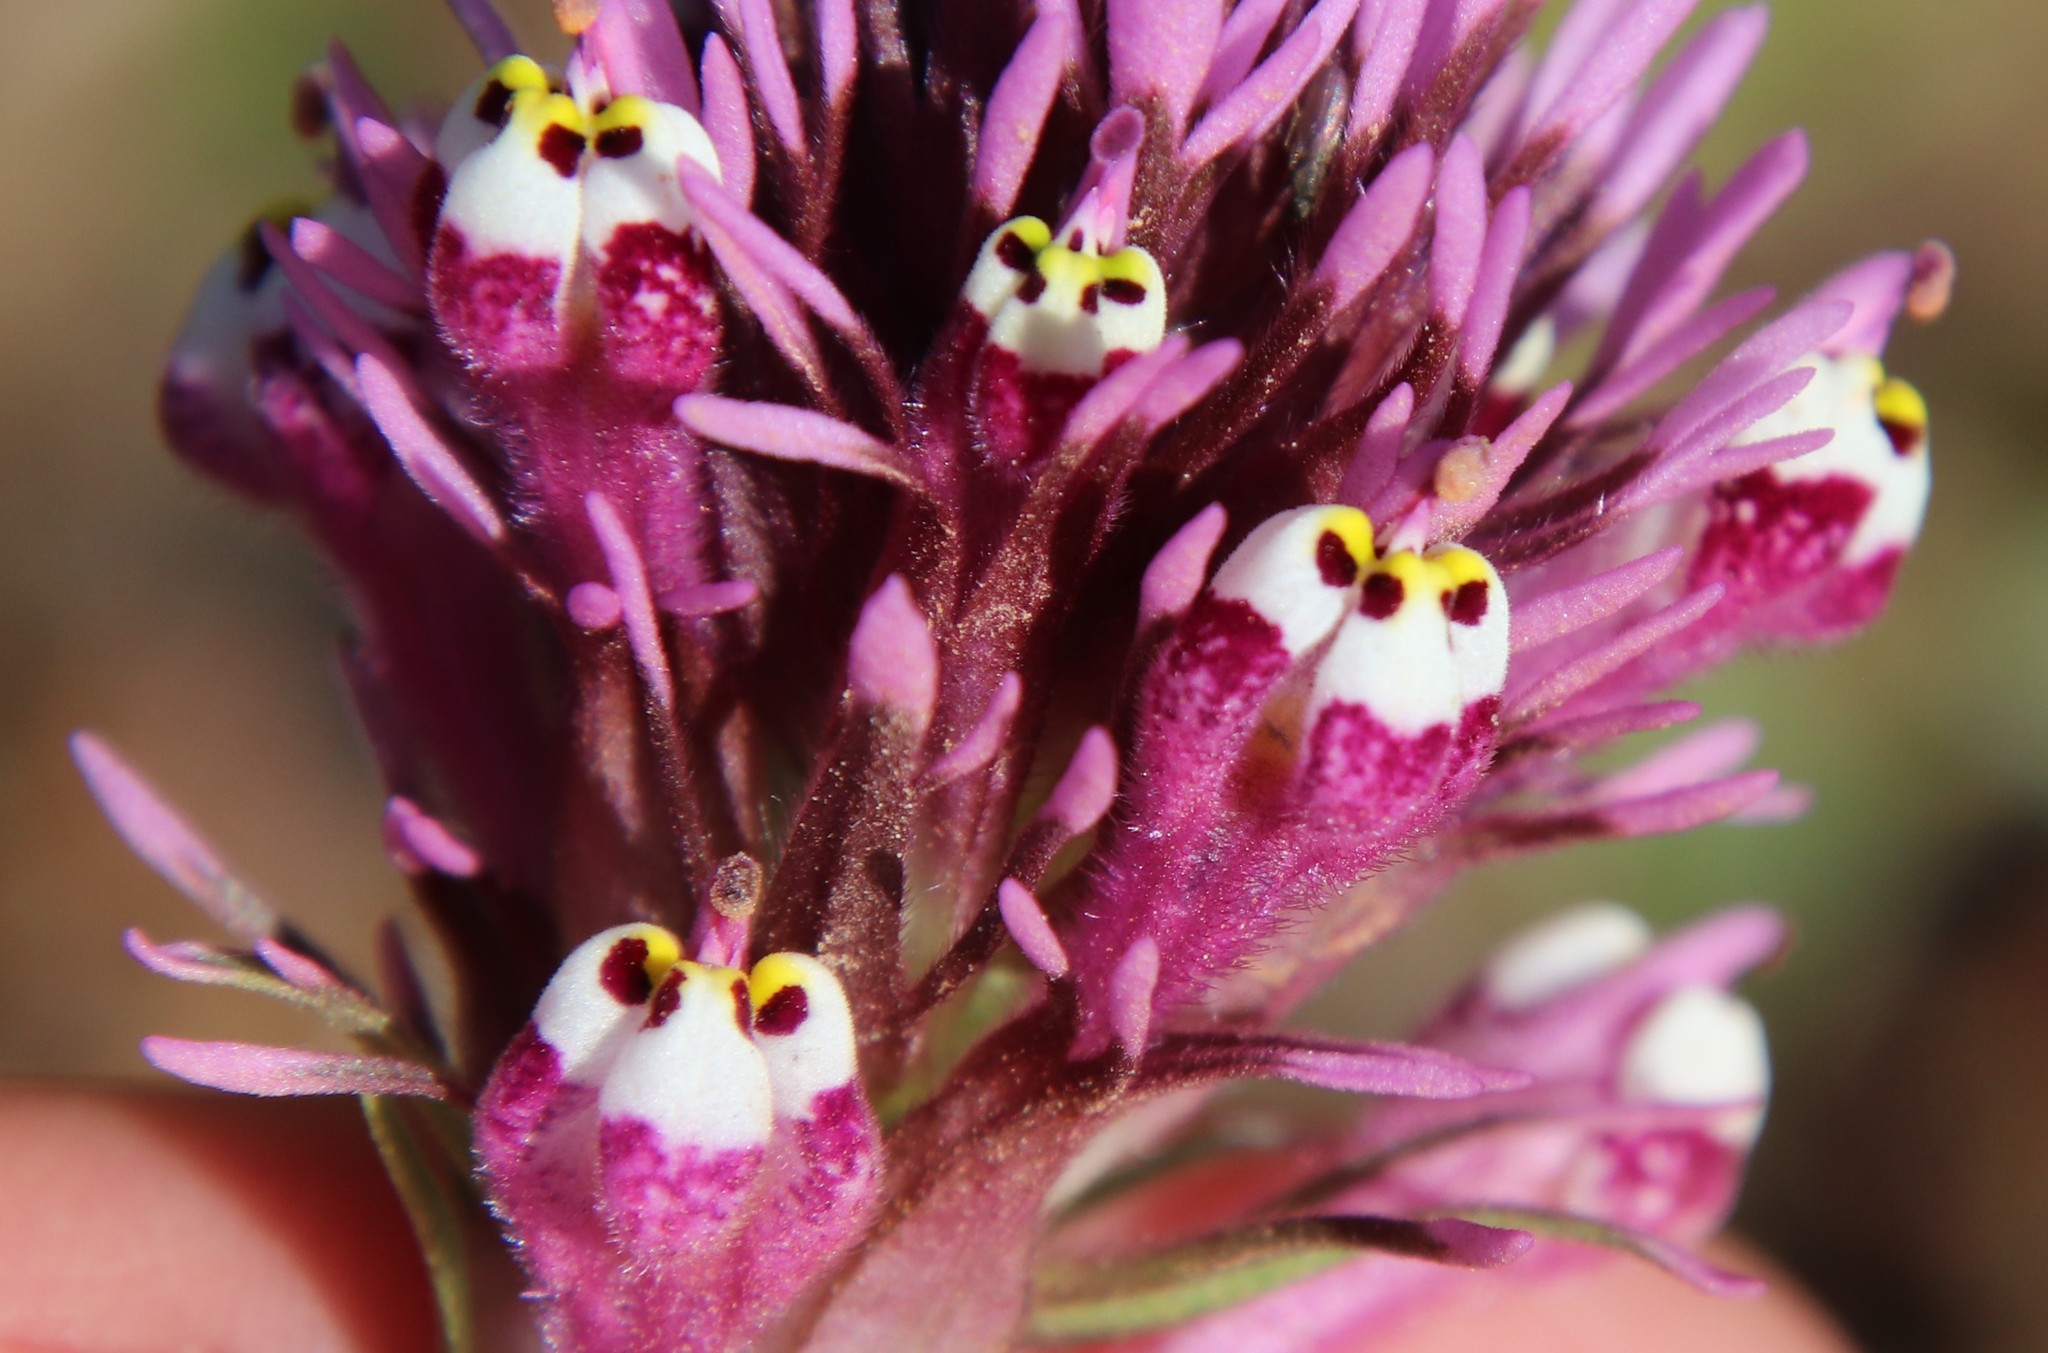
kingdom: Plantae
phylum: Tracheophyta
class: Magnoliopsida
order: Lamiales
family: Orobanchaceae
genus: Castilleja
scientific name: Castilleja densiflora
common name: Dense-flower indian paintbrush
